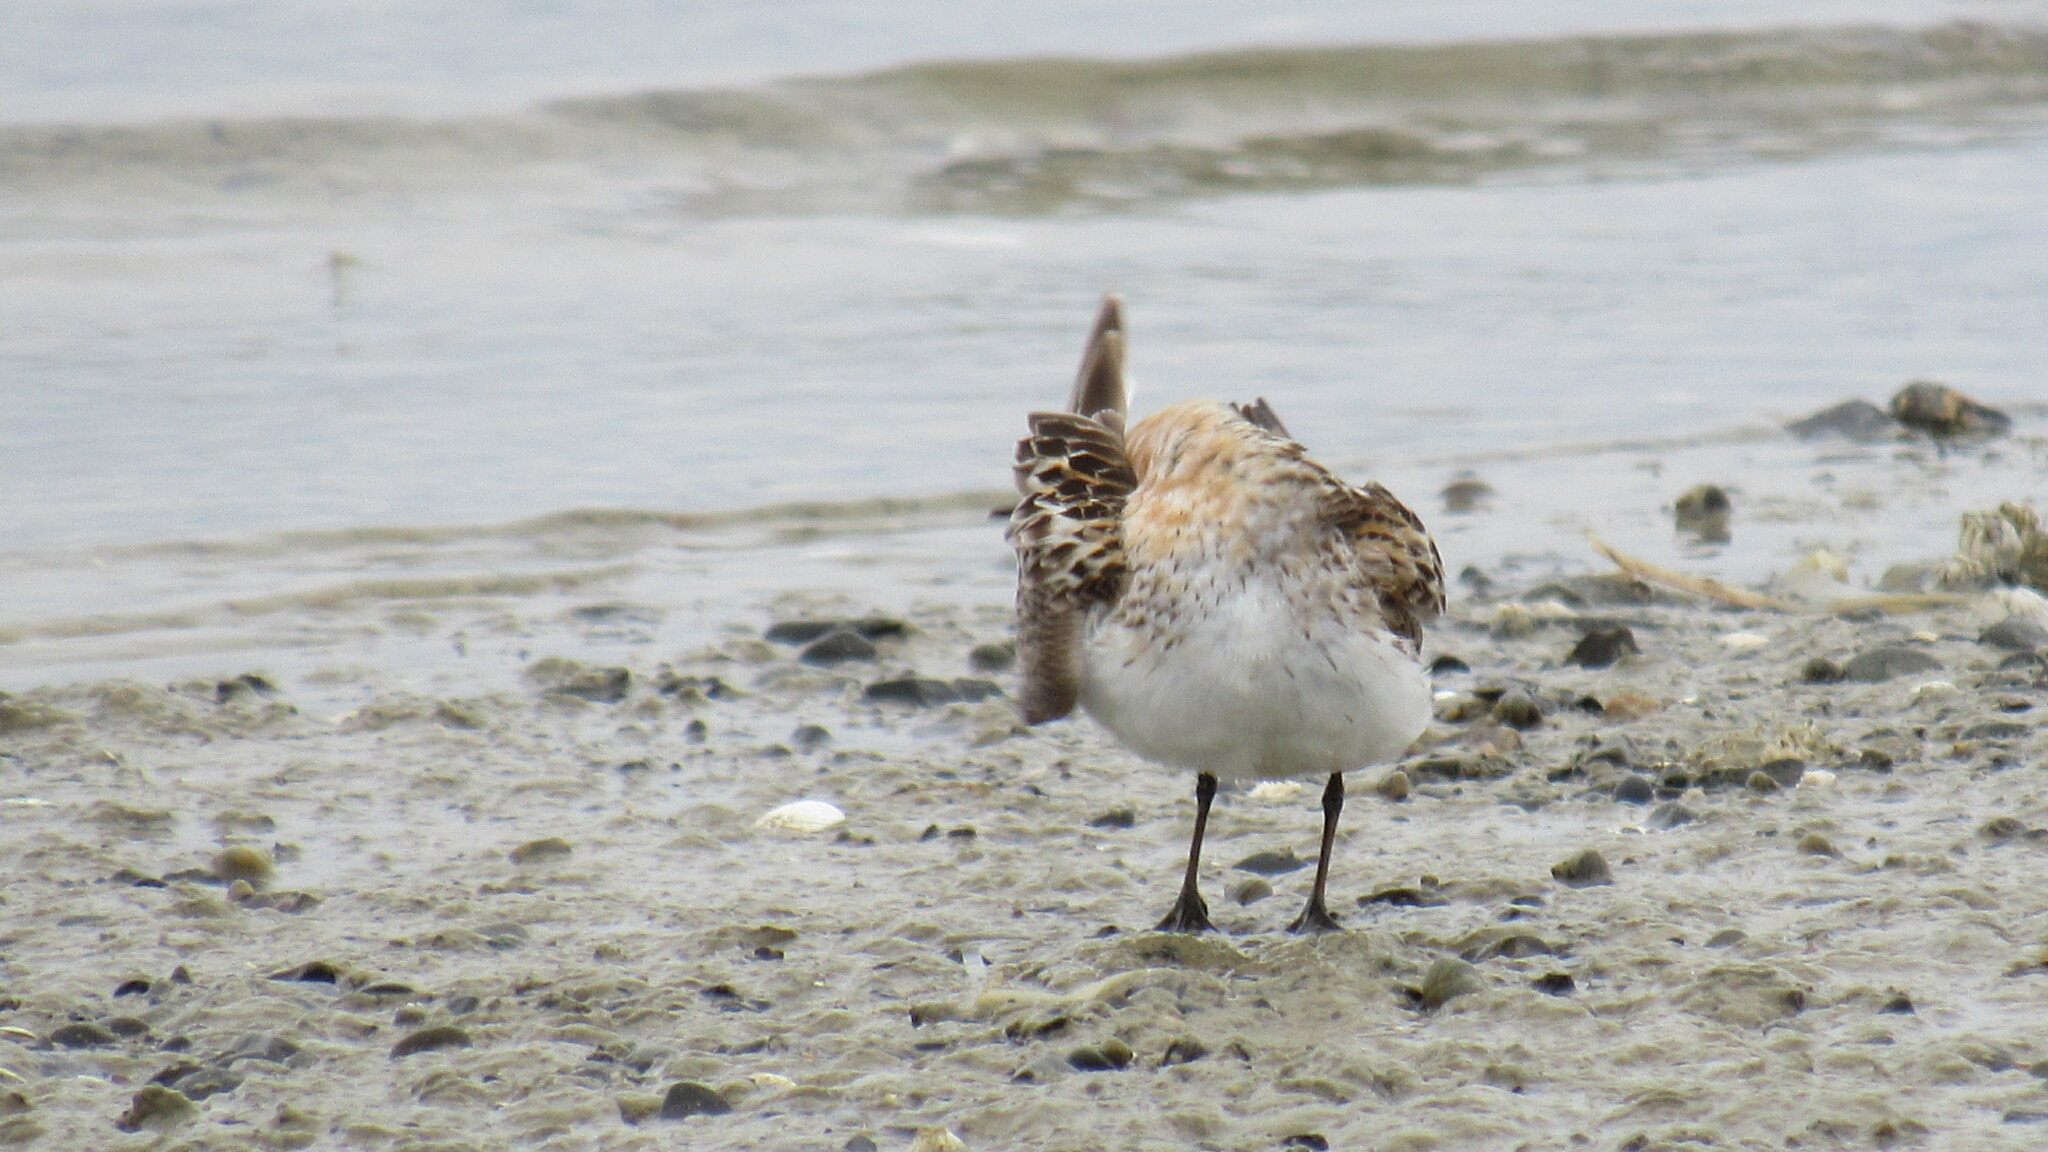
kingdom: Animalia
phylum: Chordata
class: Aves
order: Charadriiformes
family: Scolopacidae
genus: Calidris
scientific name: Calidris ruficollis
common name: Red-necked stint
